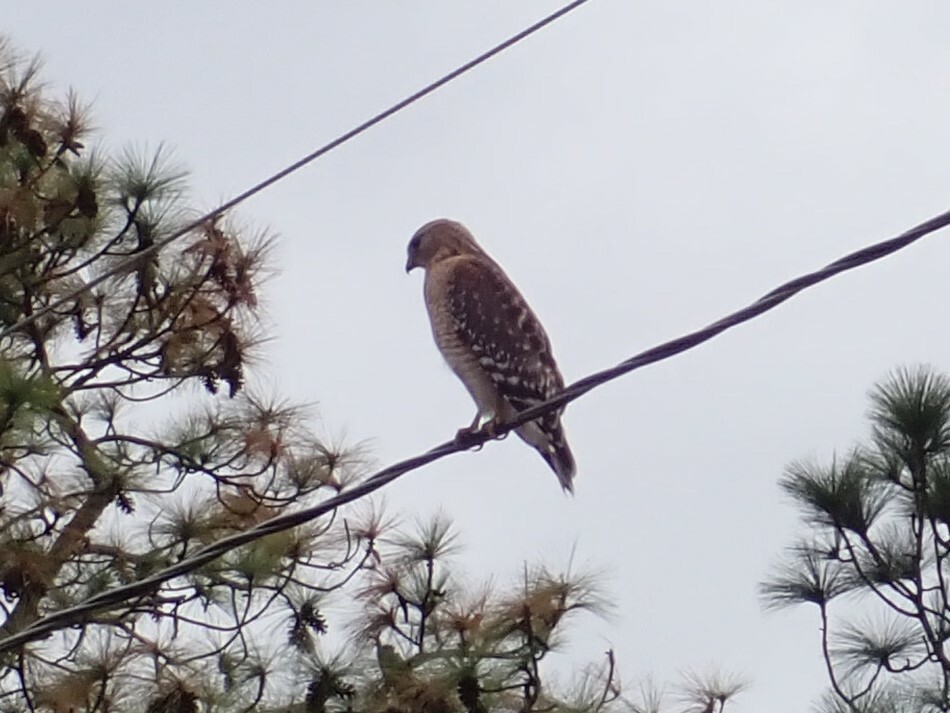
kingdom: Animalia
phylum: Chordata
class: Aves
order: Accipitriformes
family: Accipitridae
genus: Buteo
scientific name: Buteo lineatus
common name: Red-shouldered hawk
